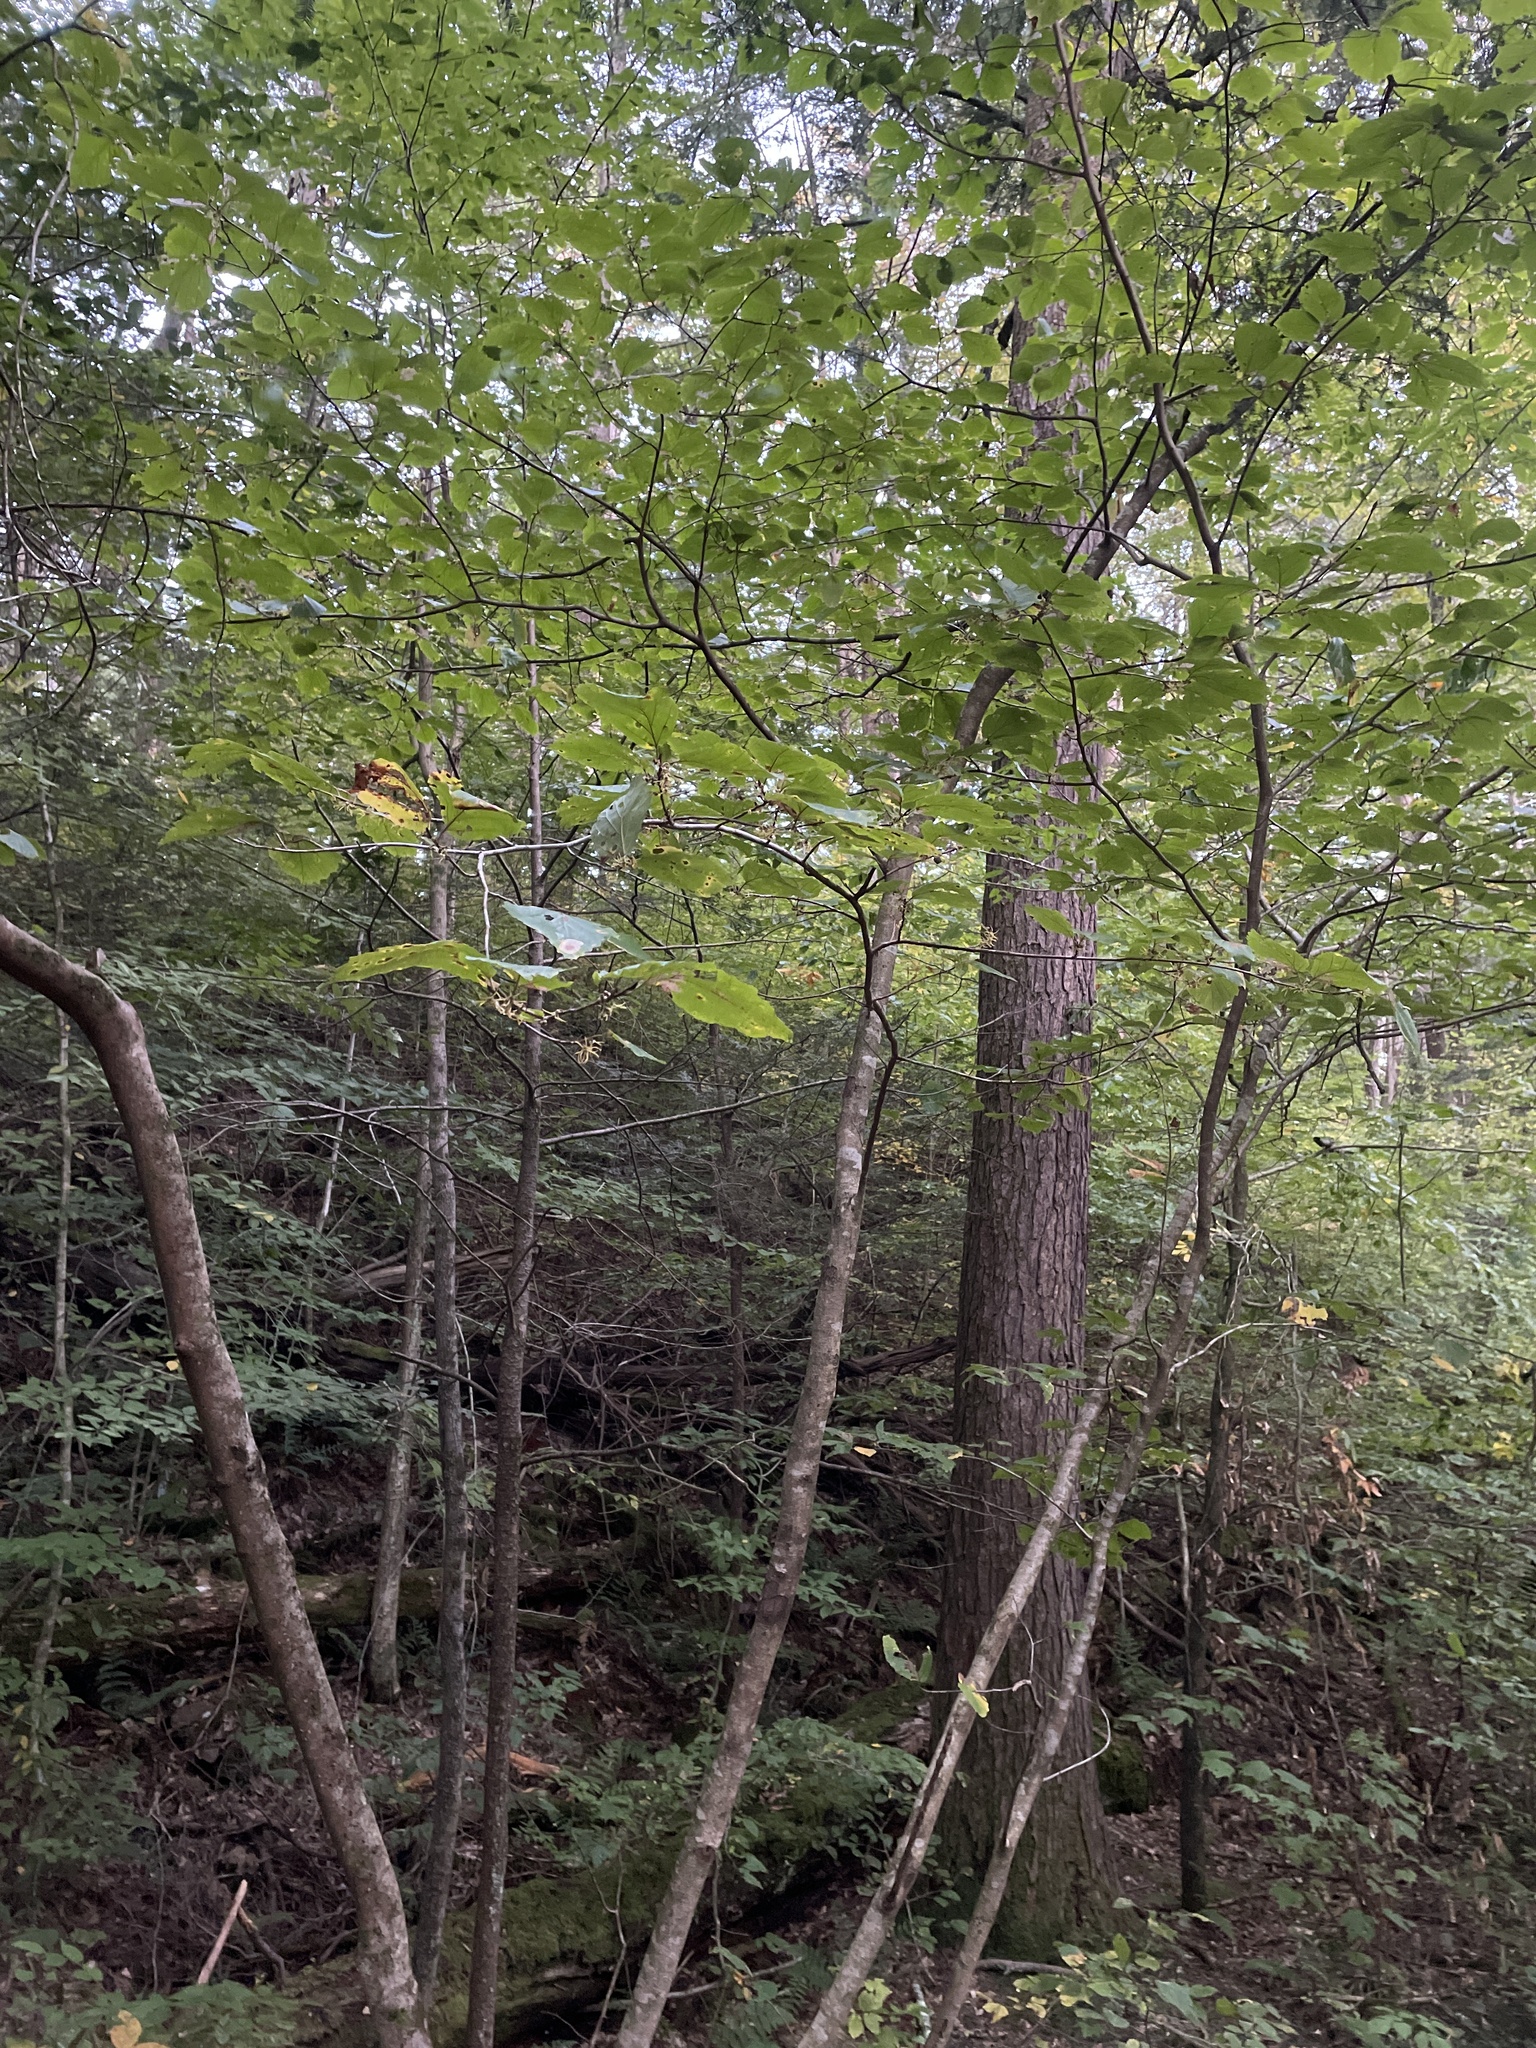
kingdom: Plantae
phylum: Tracheophyta
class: Magnoliopsida
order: Saxifragales
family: Hamamelidaceae
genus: Hamamelis
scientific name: Hamamelis virginiana
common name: Witch-hazel
